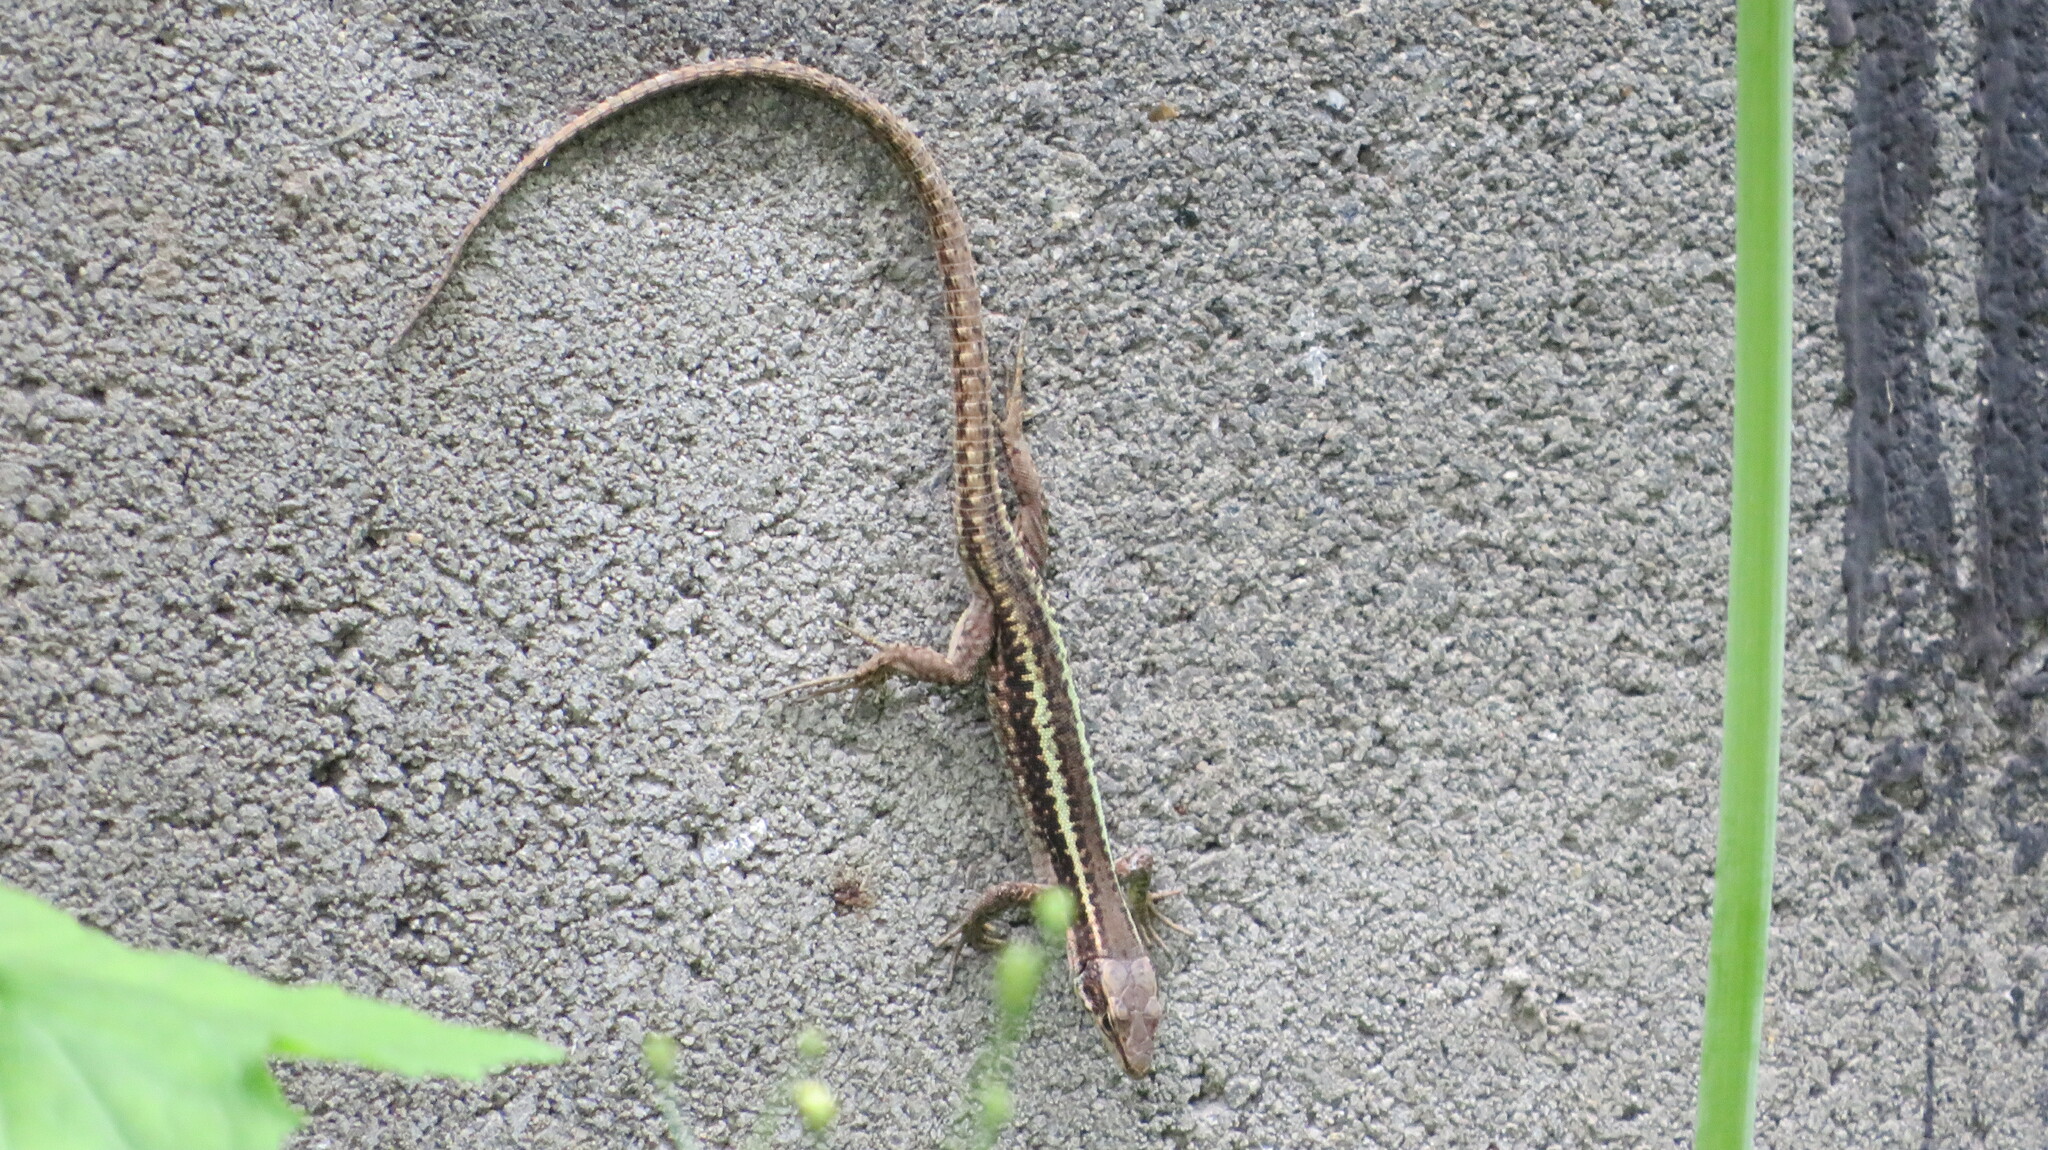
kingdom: Animalia
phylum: Chordata
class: Squamata
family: Lacertidae
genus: Darevskia
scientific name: Darevskia caucasica
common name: Caucasian llzard
